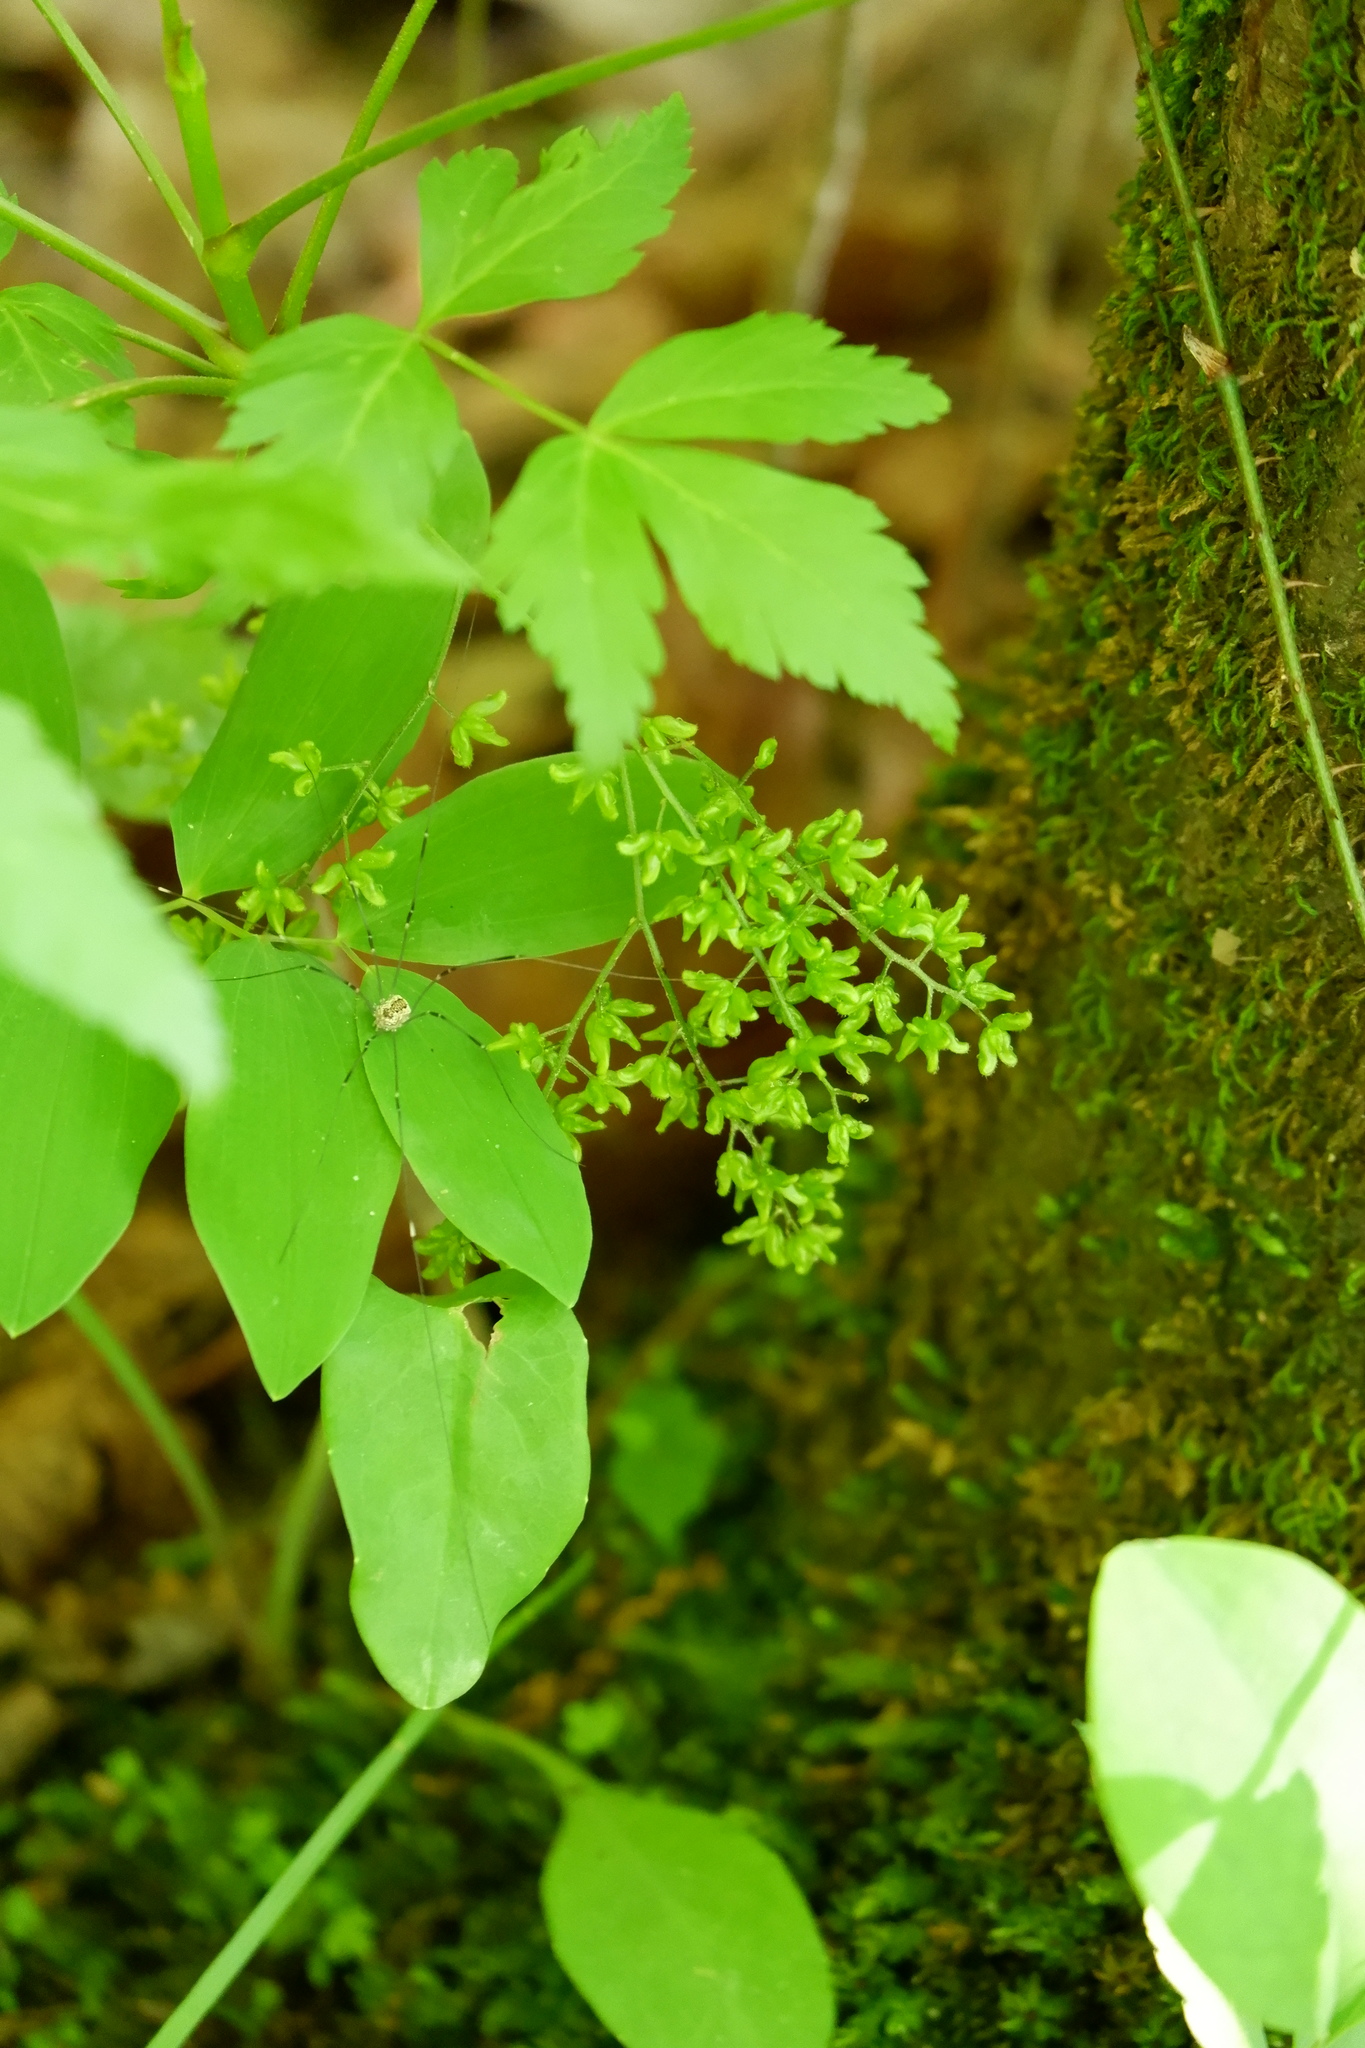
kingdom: Plantae
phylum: Tracheophyta
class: Magnoliopsida
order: Ranunculales
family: Ranunculaceae
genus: Xanthorhiza
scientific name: Xanthorhiza simplicissima
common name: Yellowroot
